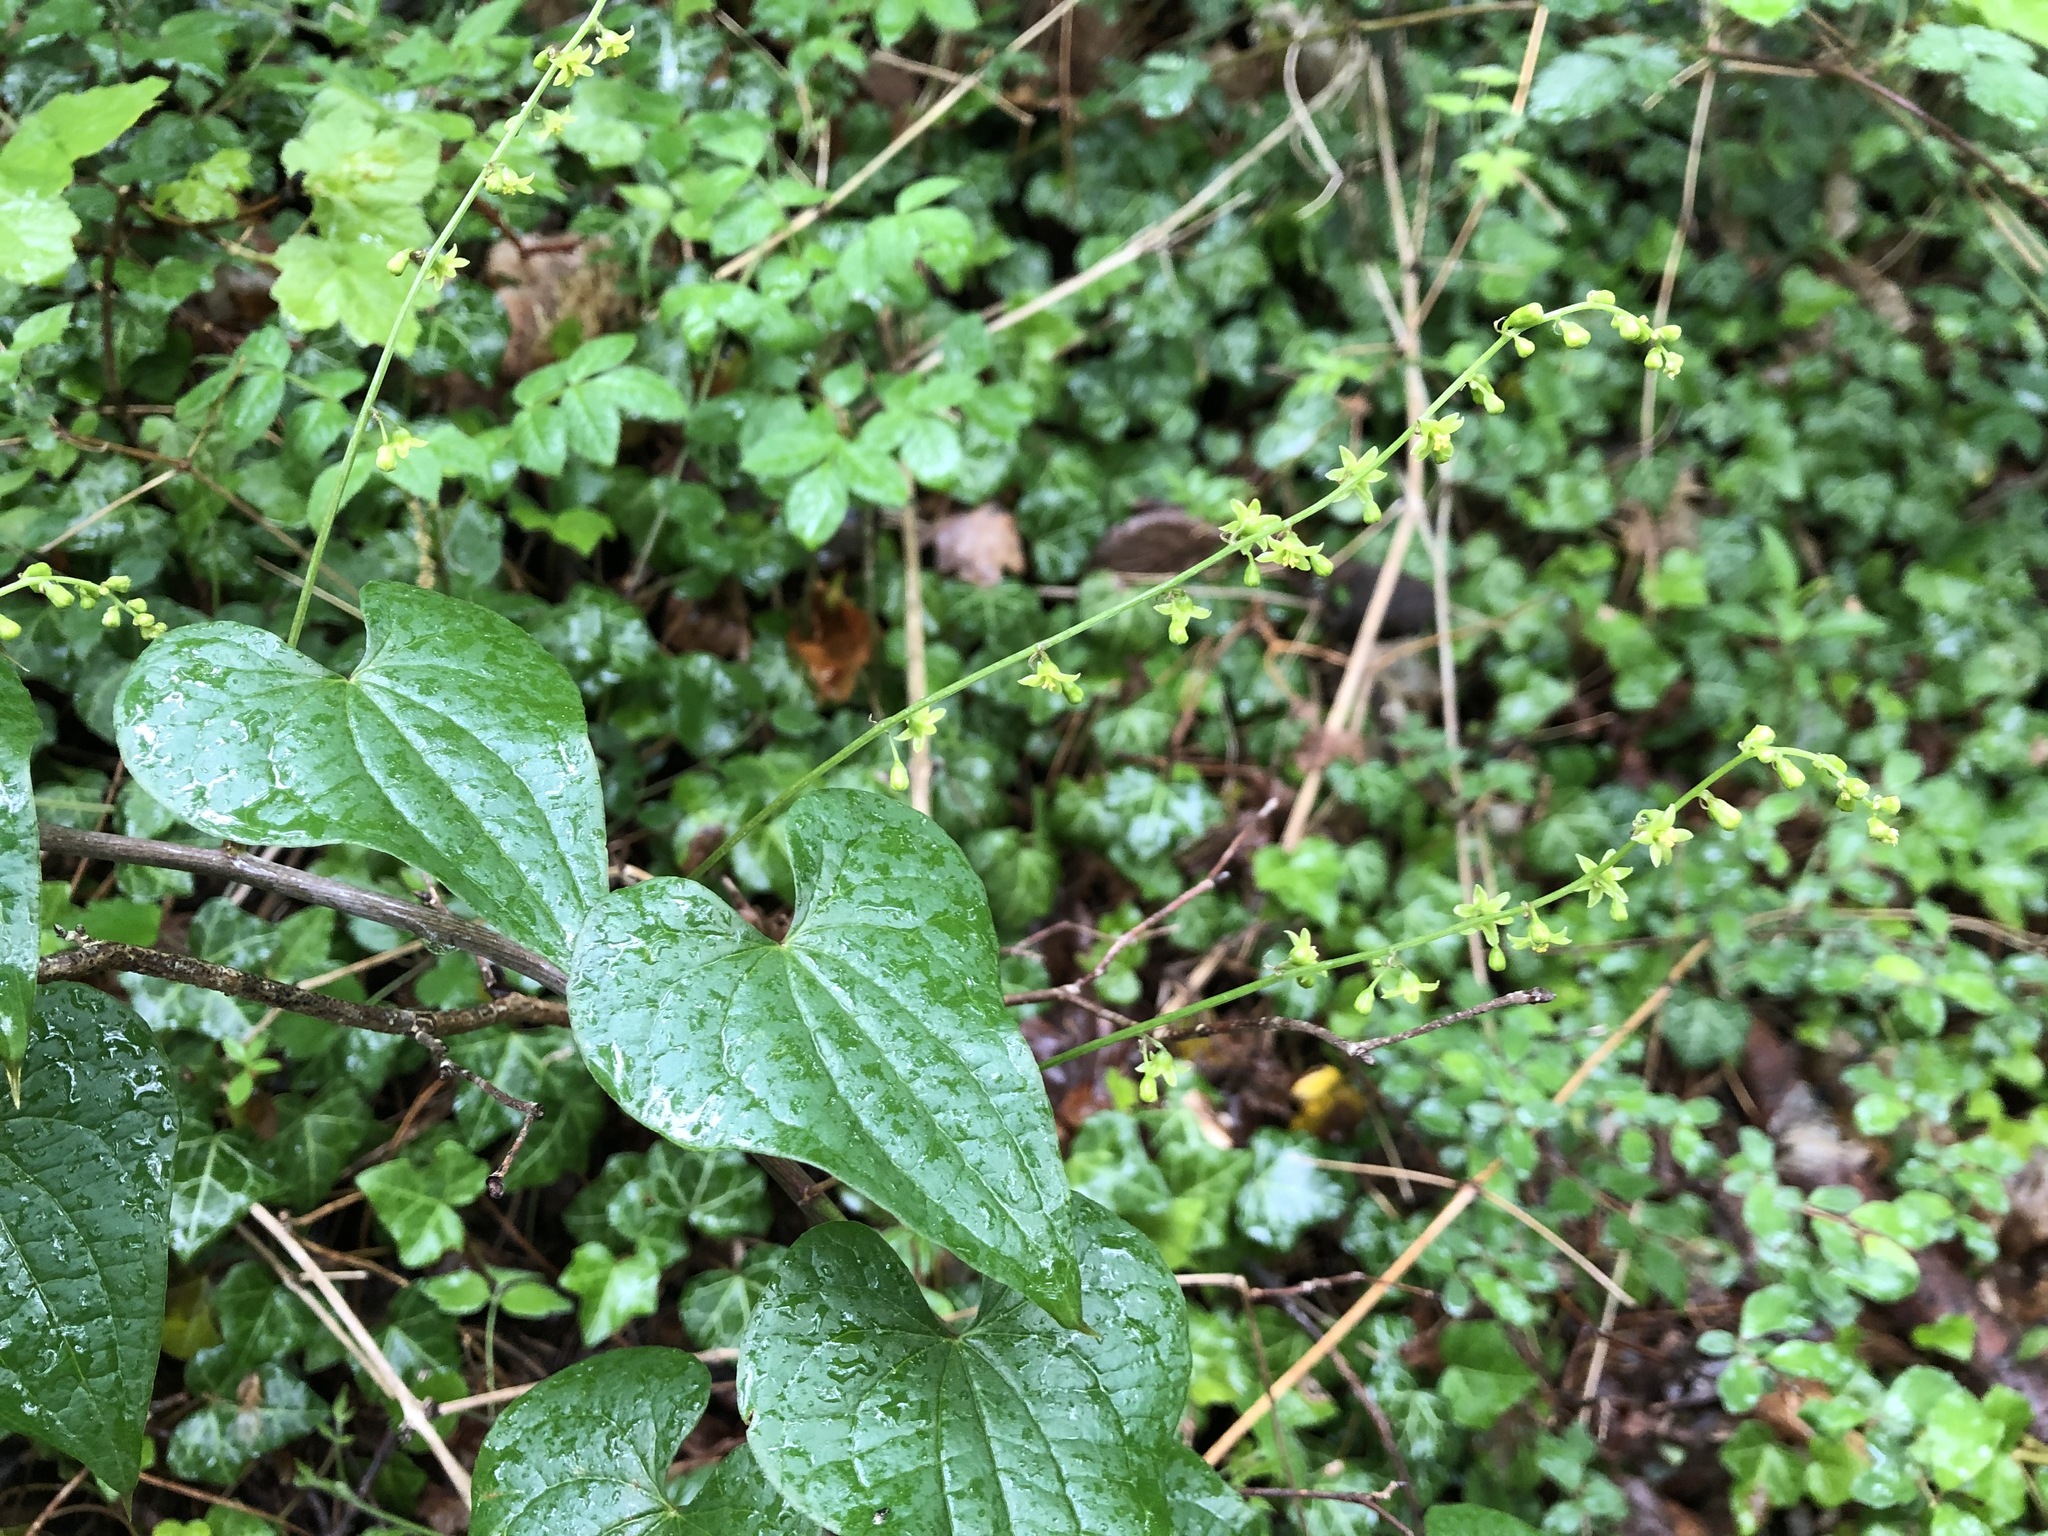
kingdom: Plantae
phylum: Tracheophyta
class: Liliopsida
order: Dioscoreales
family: Dioscoreaceae
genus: Dioscorea
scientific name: Dioscorea communis
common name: Black-bindweed
